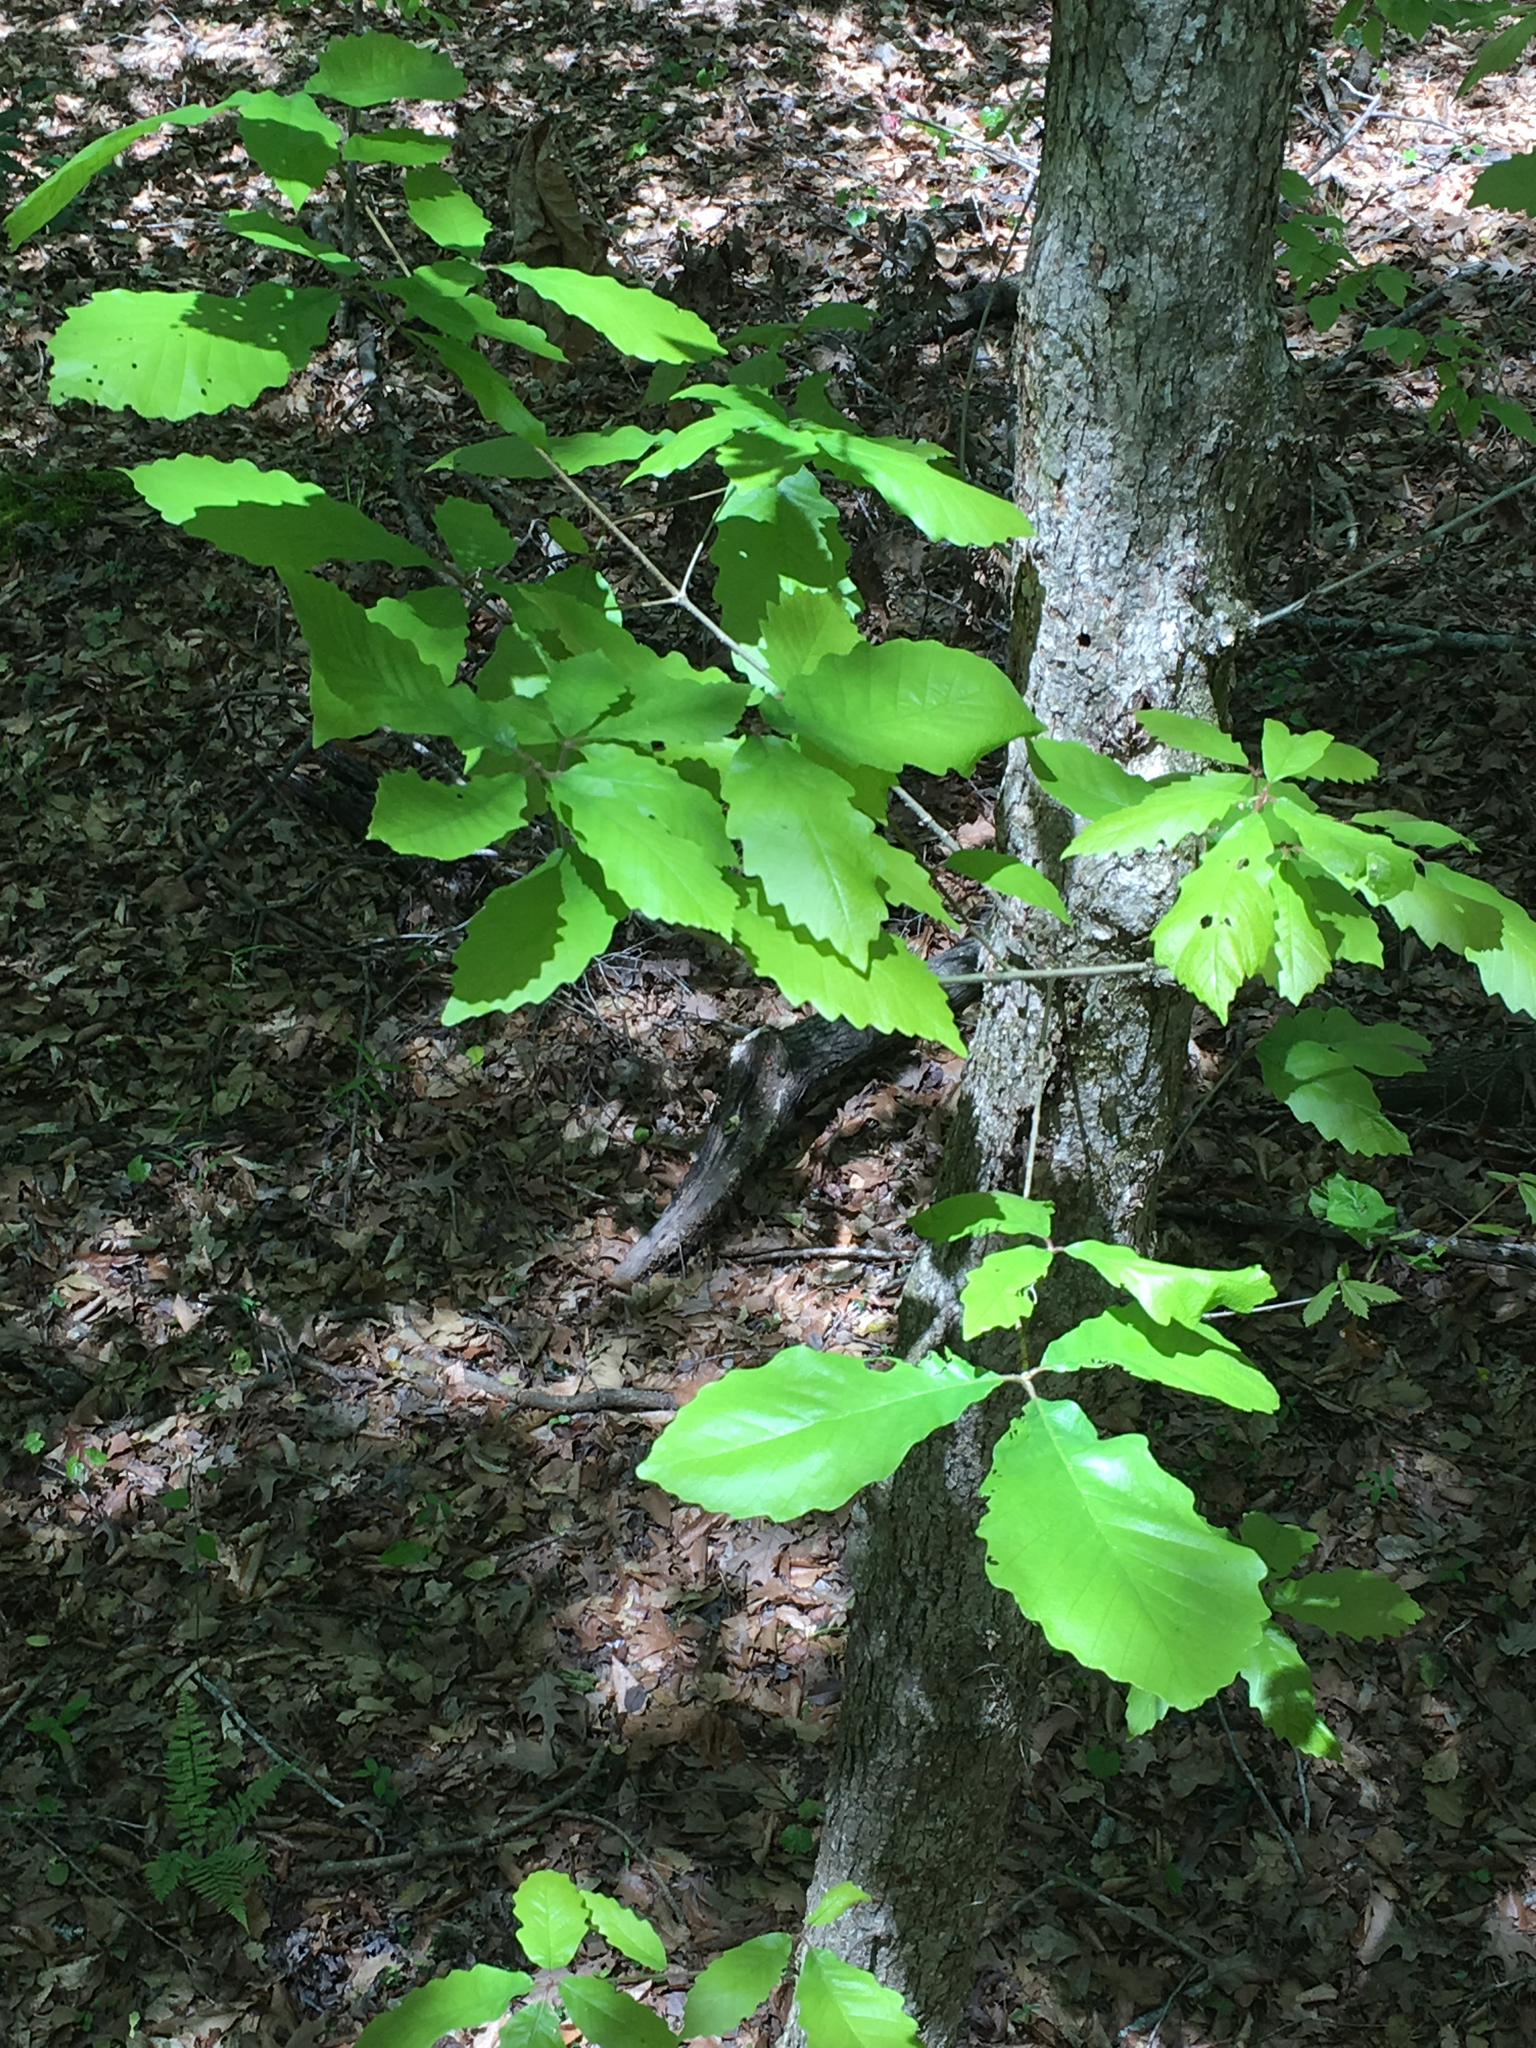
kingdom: Plantae
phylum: Tracheophyta
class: Magnoliopsida
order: Fagales
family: Fagaceae
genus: Quercus
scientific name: Quercus michauxii
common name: Swamp chestnut oak
